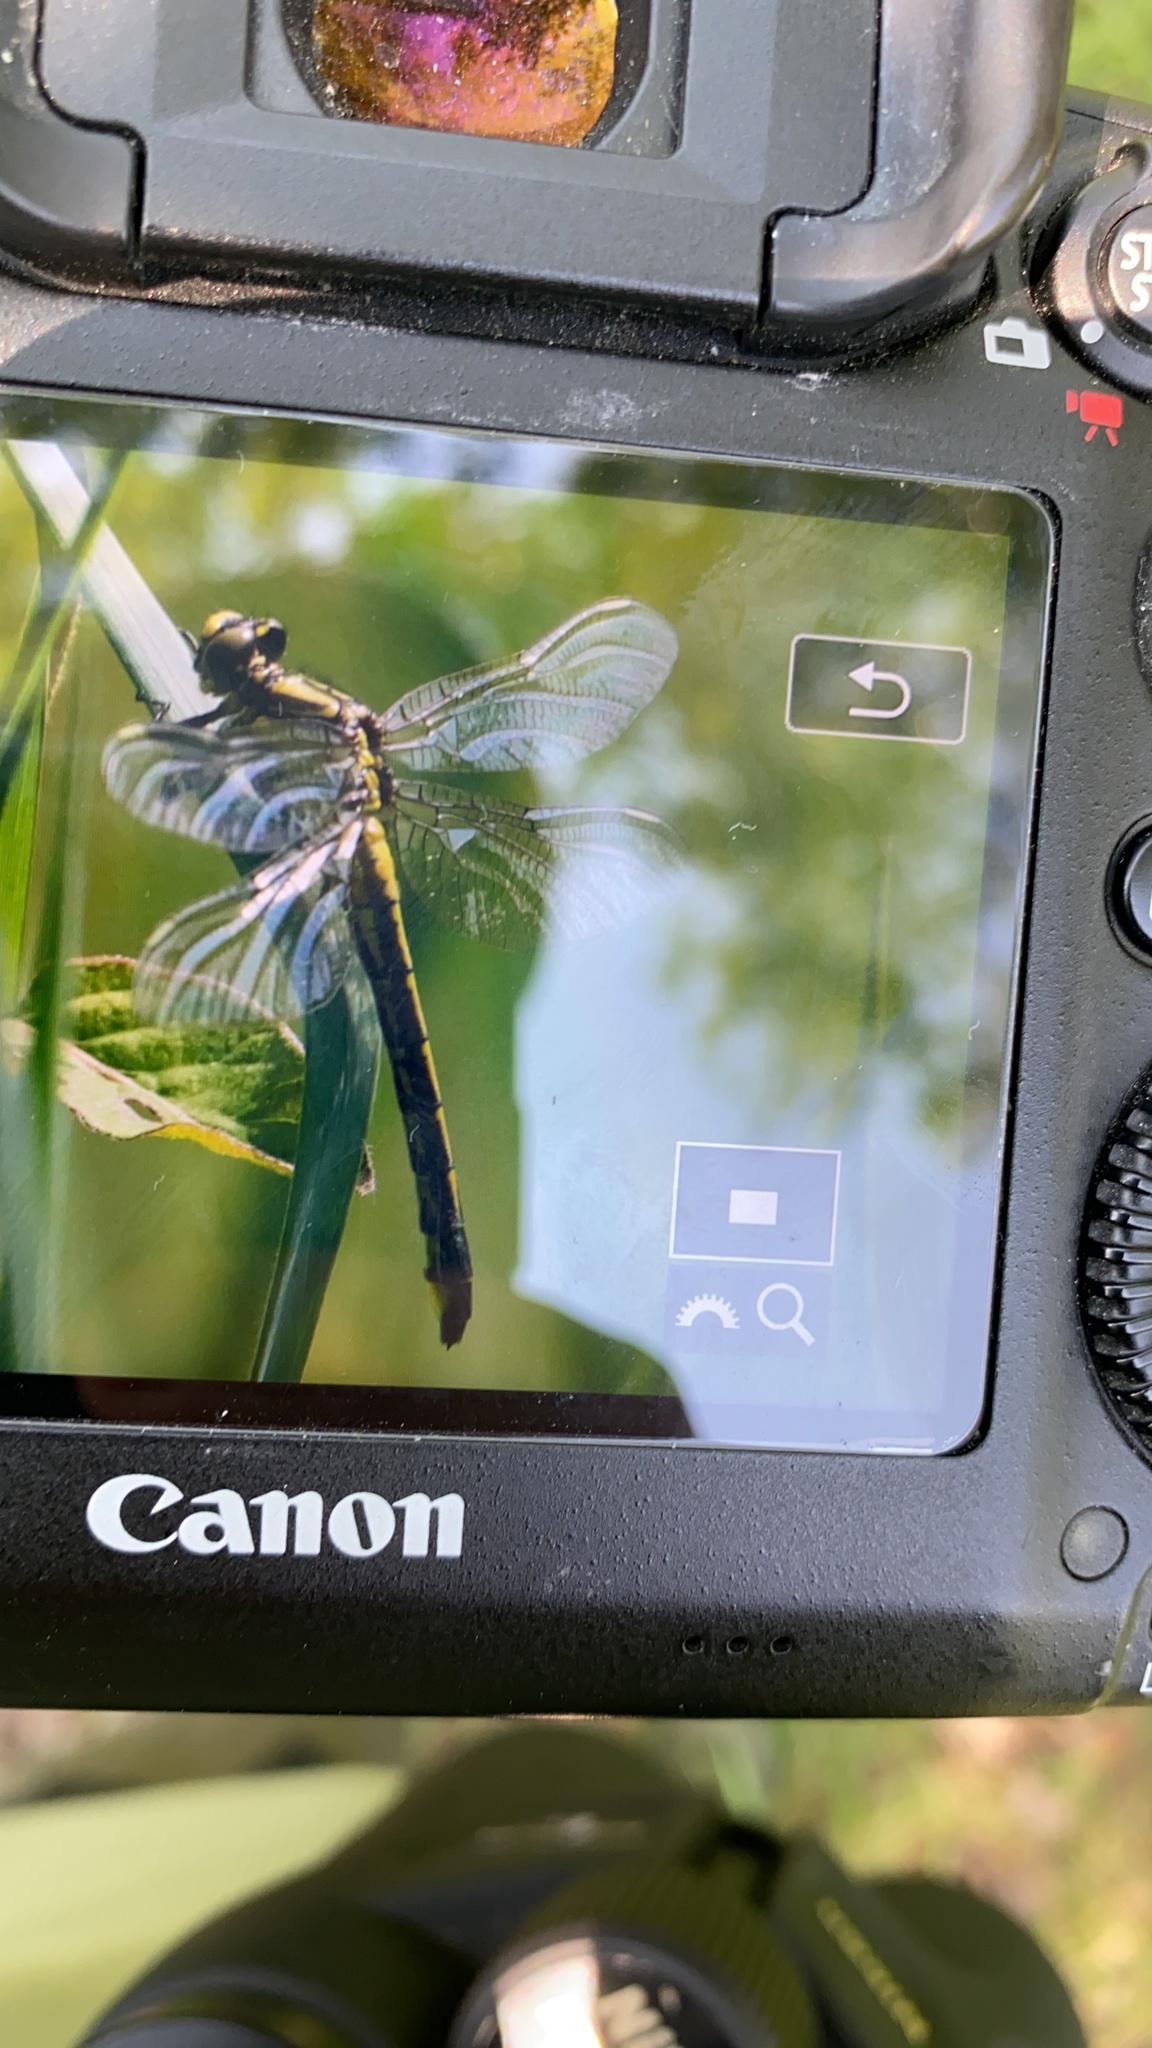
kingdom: Animalia
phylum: Arthropoda
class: Insecta
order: Odonata
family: Gomphidae
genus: Gomphus
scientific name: Gomphus vulgatissimus
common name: Club-tailed dragonfly
